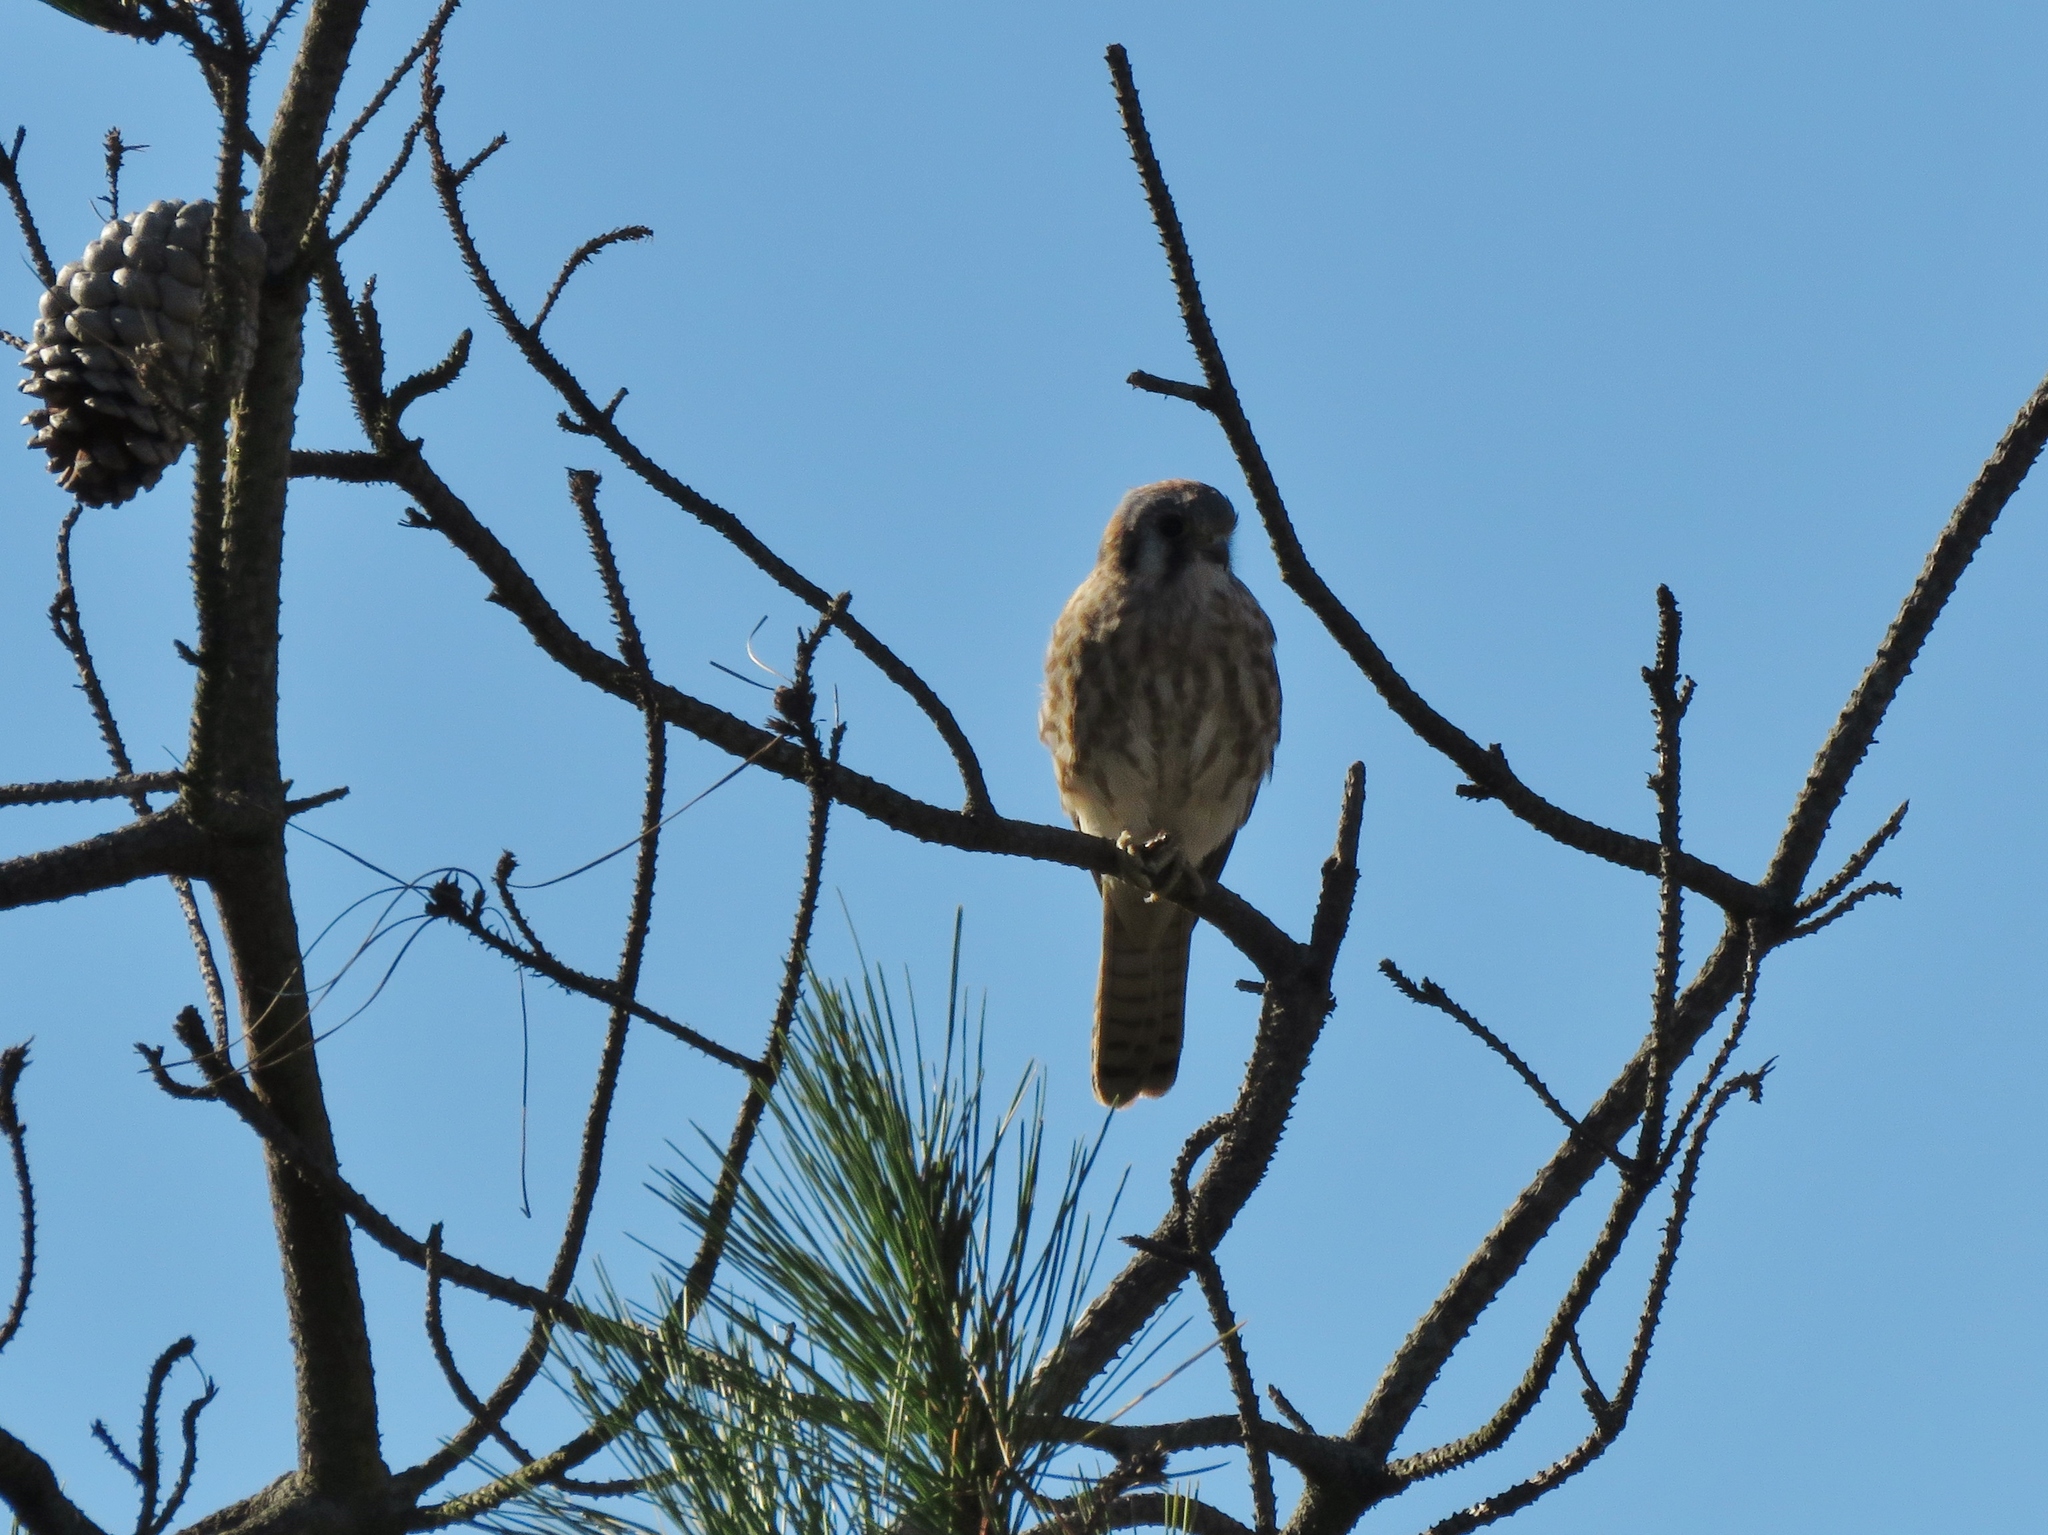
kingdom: Animalia
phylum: Chordata
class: Aves
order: Falconiformes
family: Falconidae
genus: Falco
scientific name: Falco sparverius
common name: American kestrel
